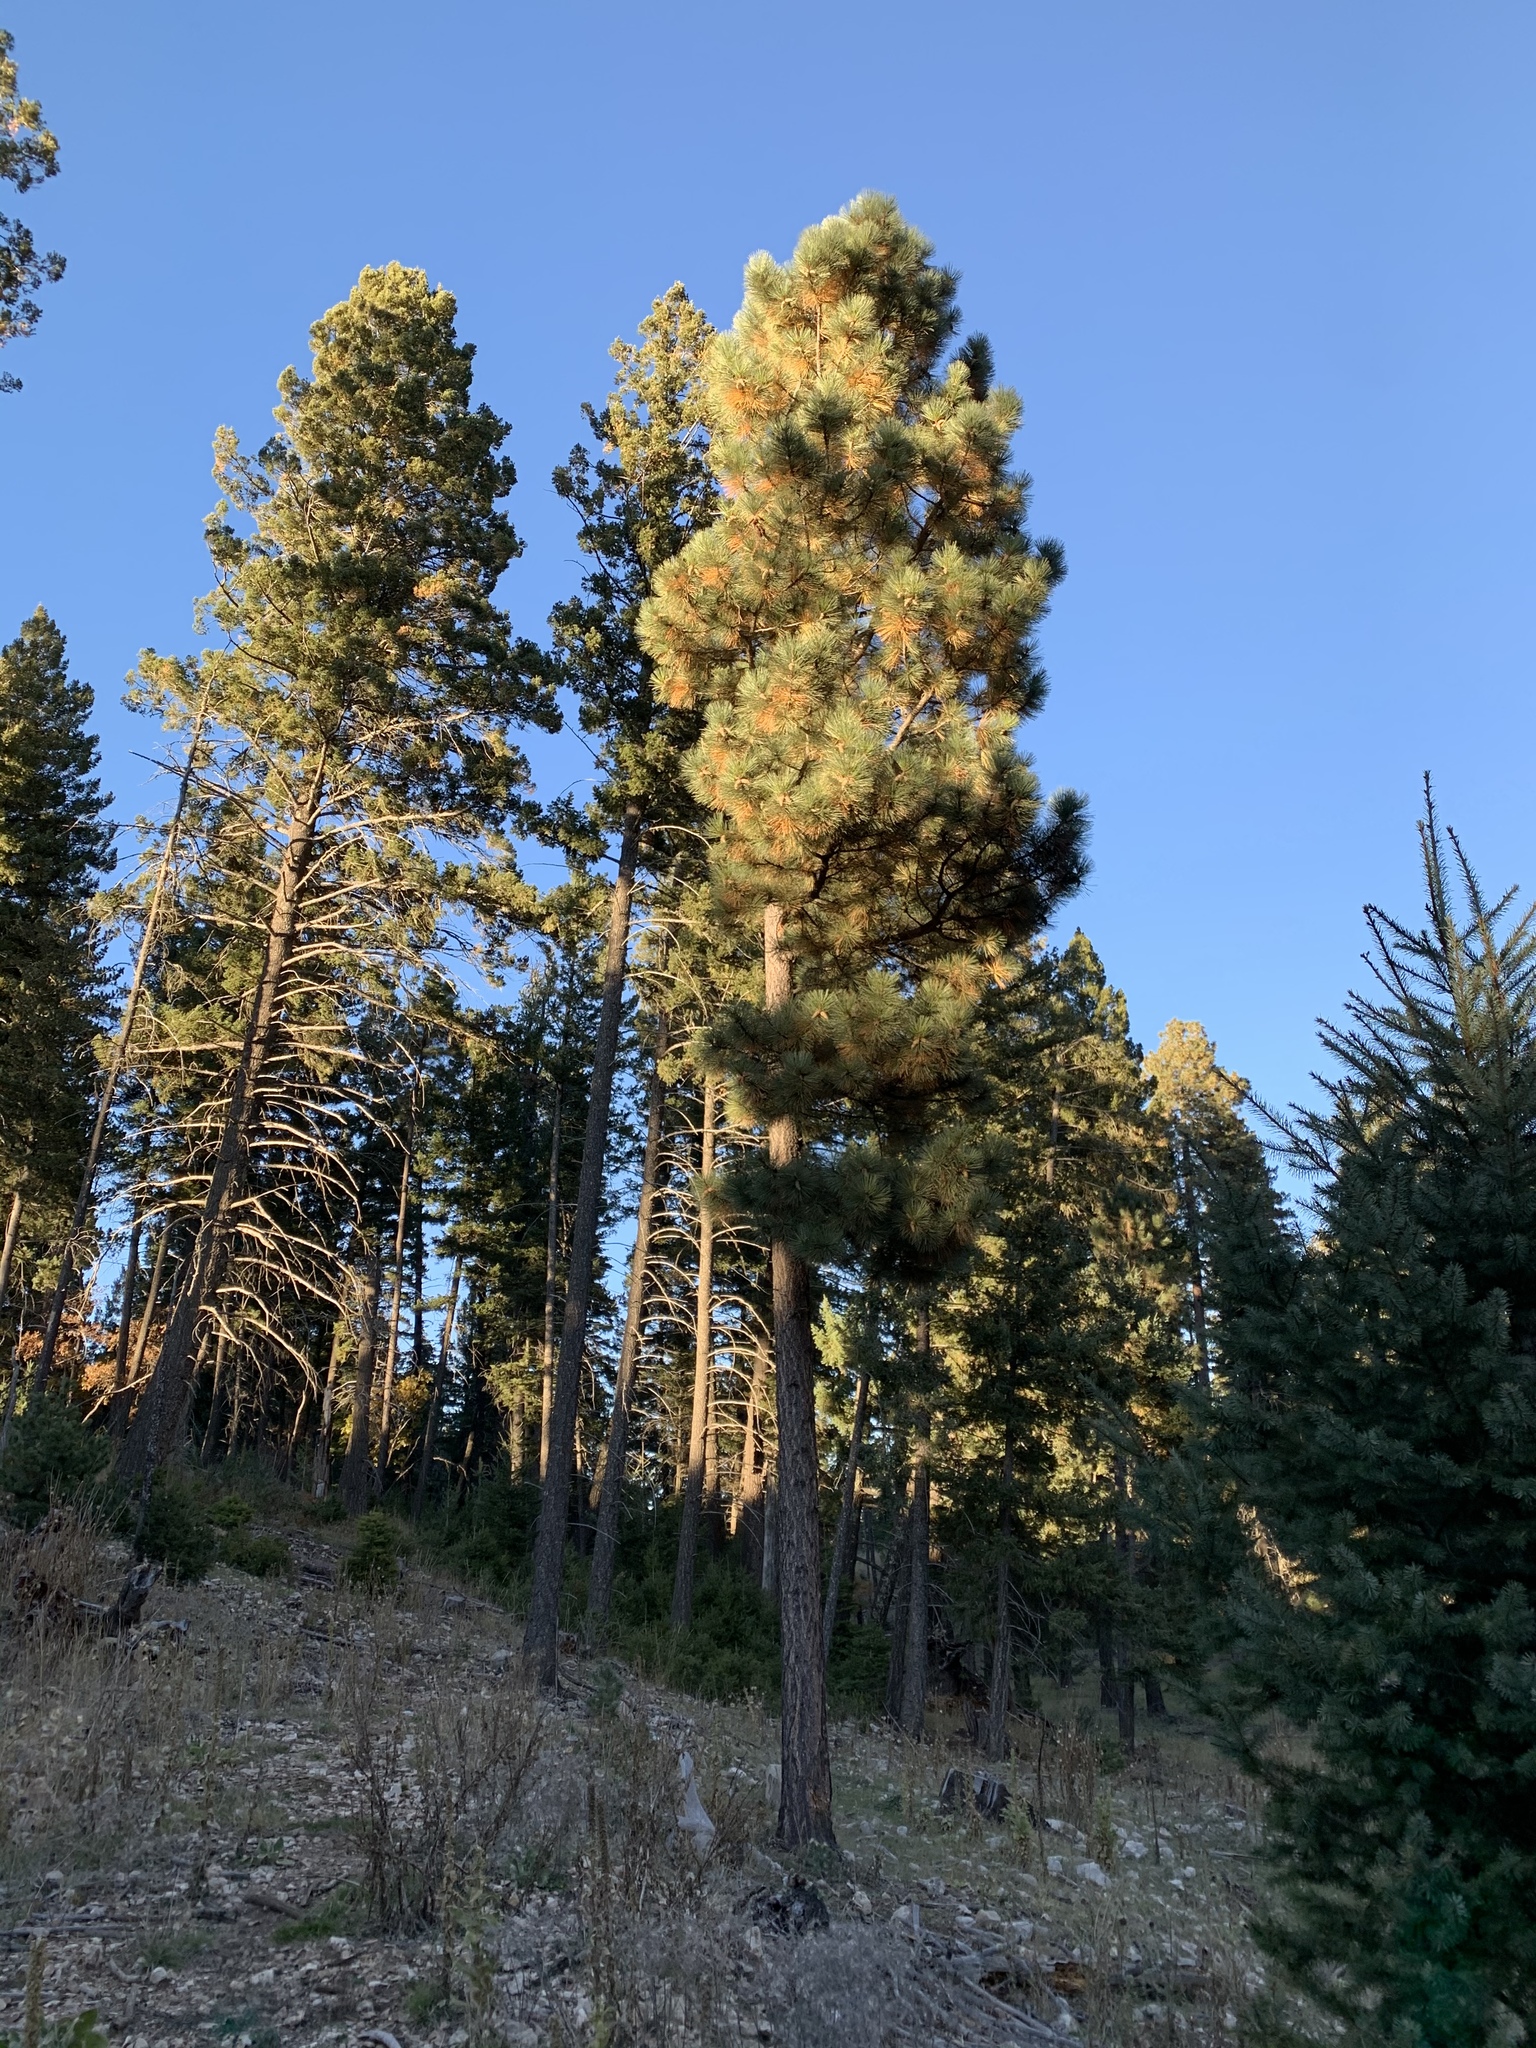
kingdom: Plantae
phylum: Tracheophyta
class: Pinopsida
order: Pinales
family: Pinaceae
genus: Pinus
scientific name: Pinus ponderosa
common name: Western yellow-pine
